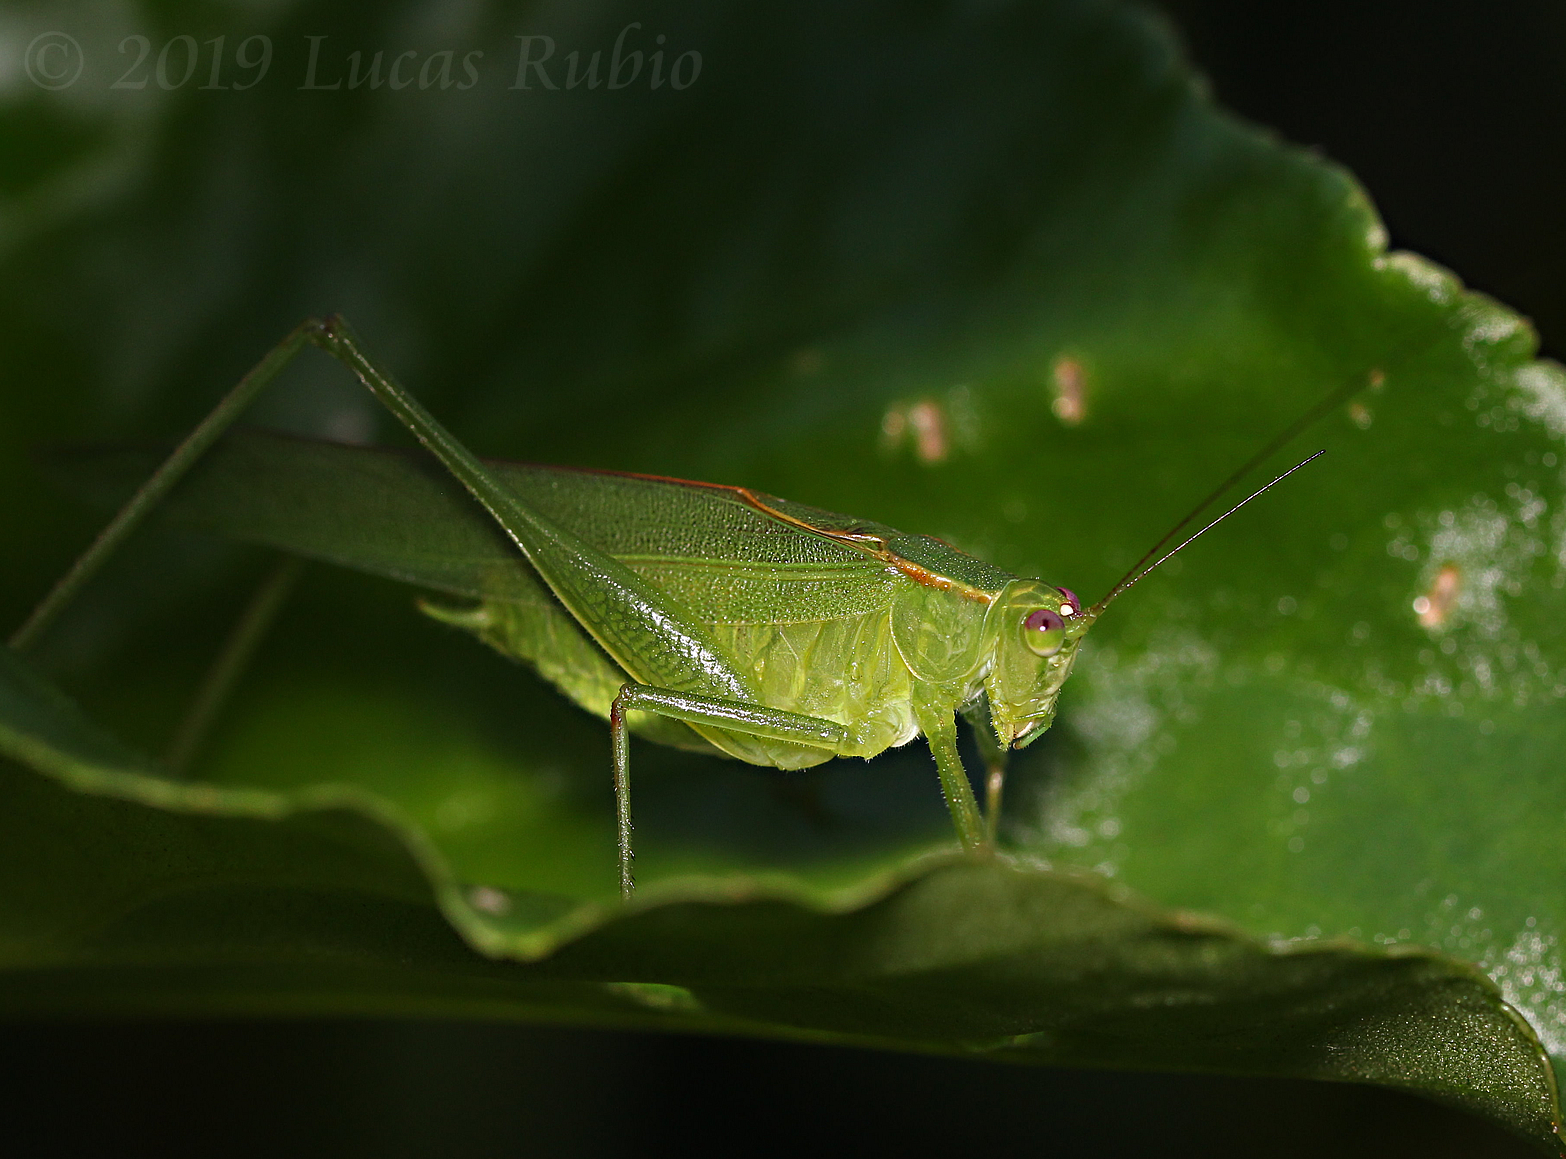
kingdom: Animalia
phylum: Arthropoda
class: Insecta
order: Orthoptera
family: Tettigoniidae
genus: Ligocatinus
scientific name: Ligocatinus spinatus
